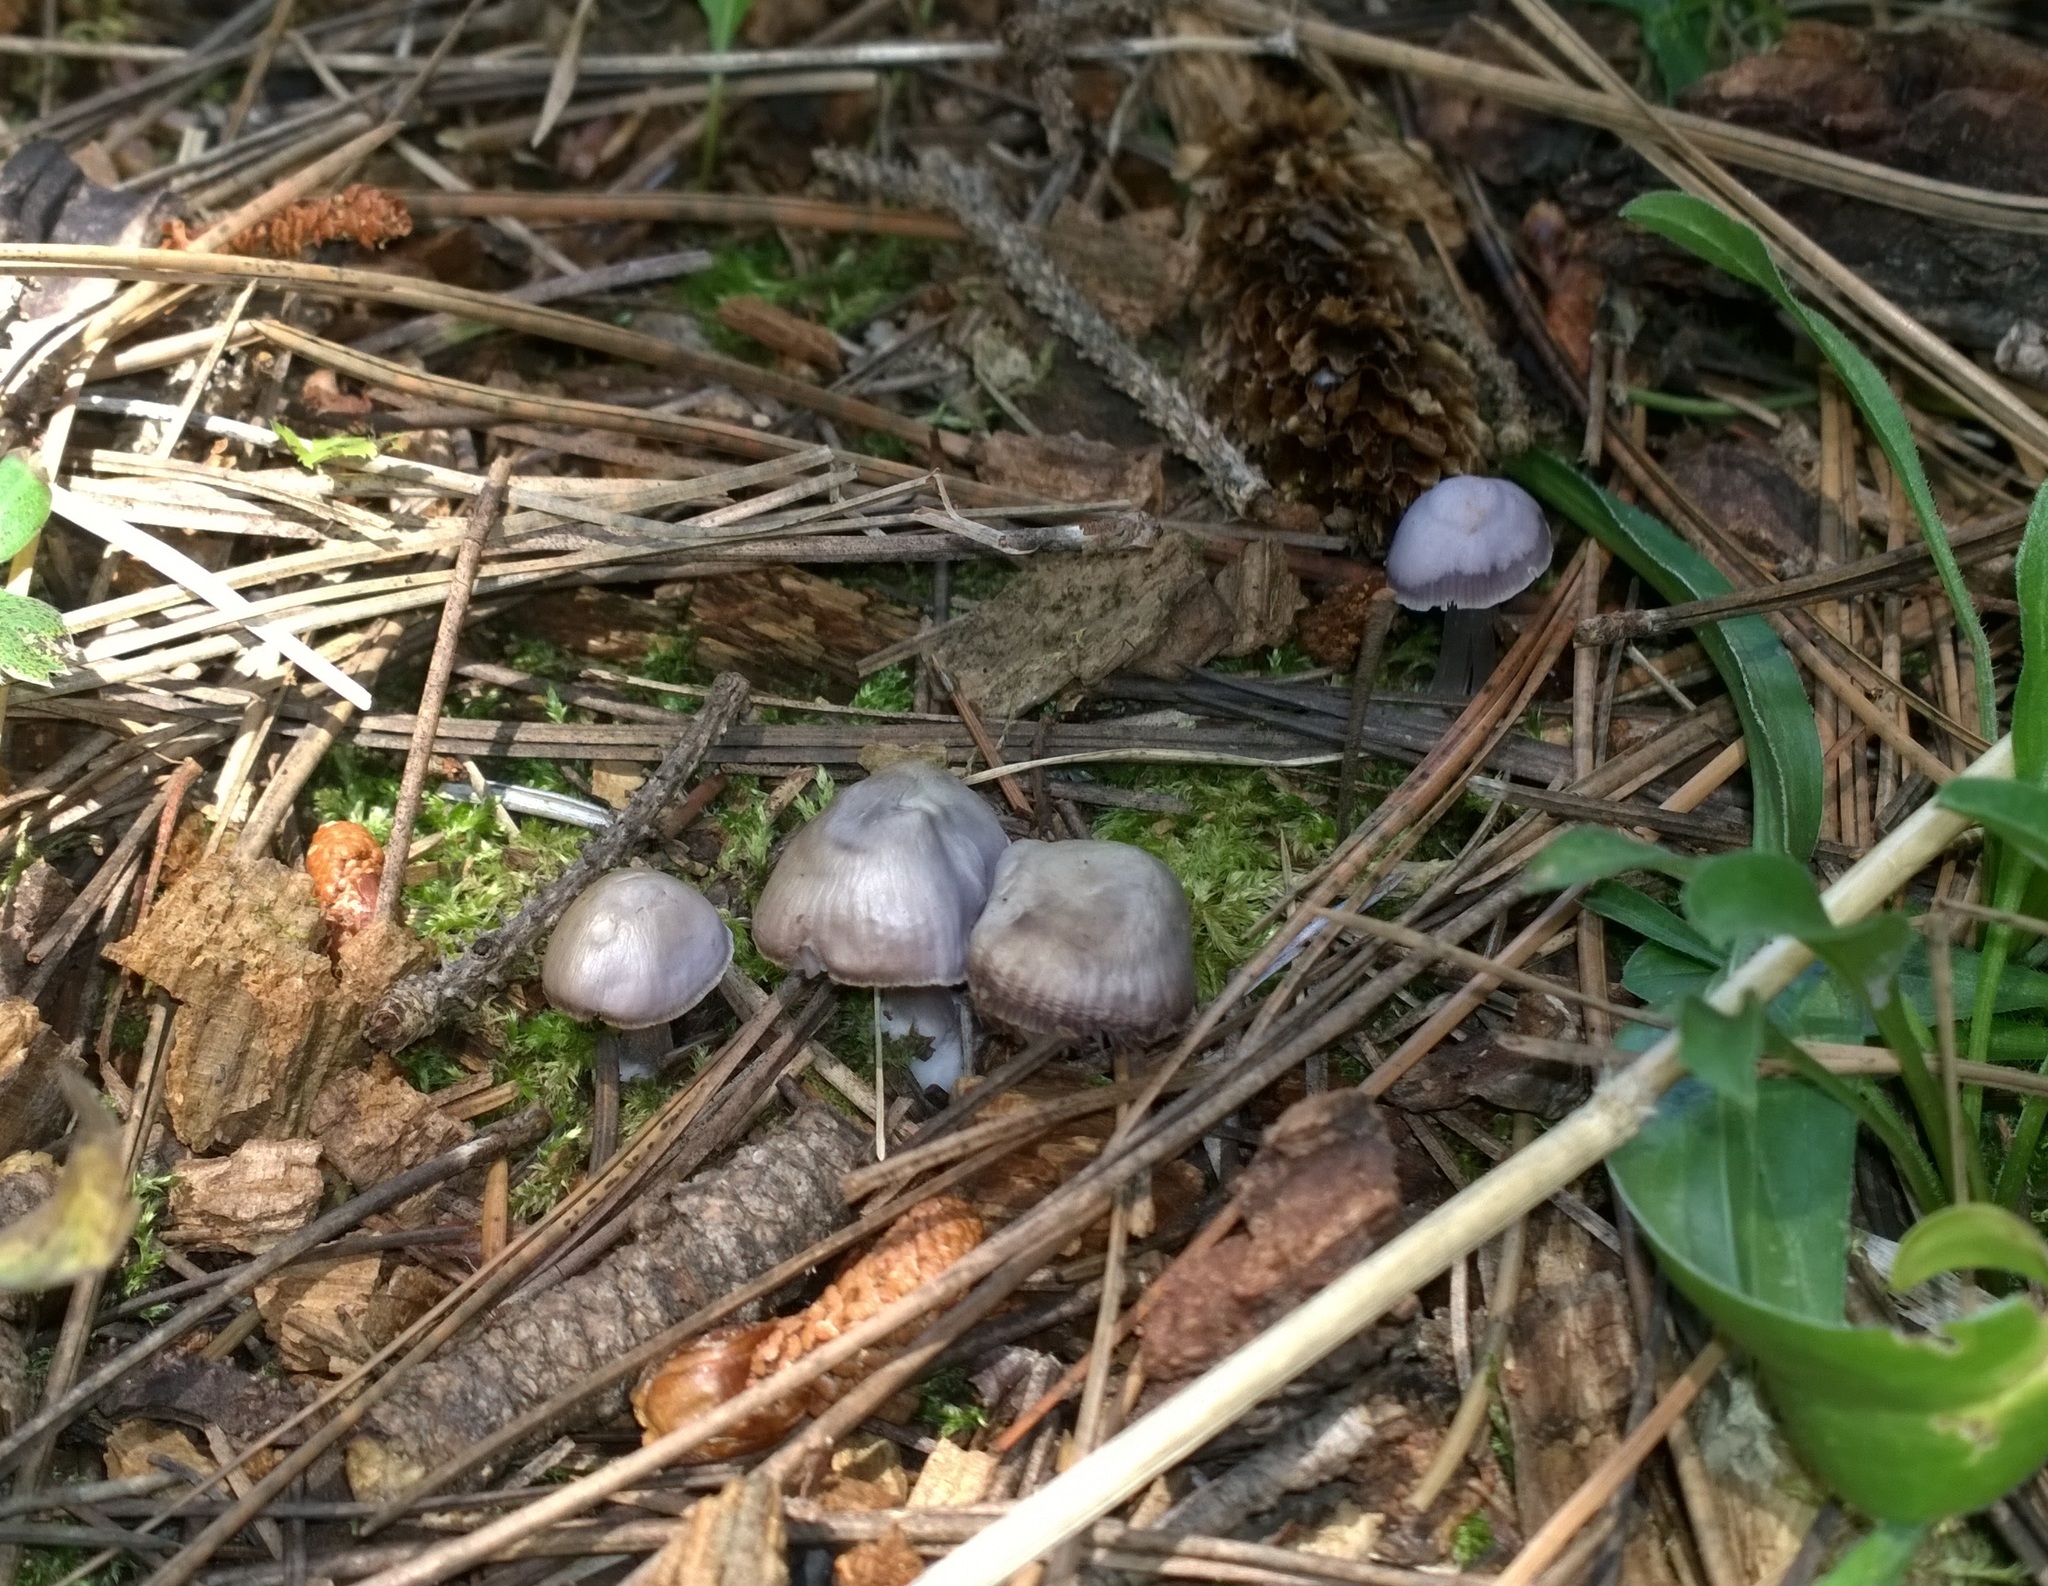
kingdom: Fungi
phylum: Basidiomycota
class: Agaricomycetes
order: Agaricales
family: Mycenaceae
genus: Mycena
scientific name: Mycena pura
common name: Lilac bonnet
